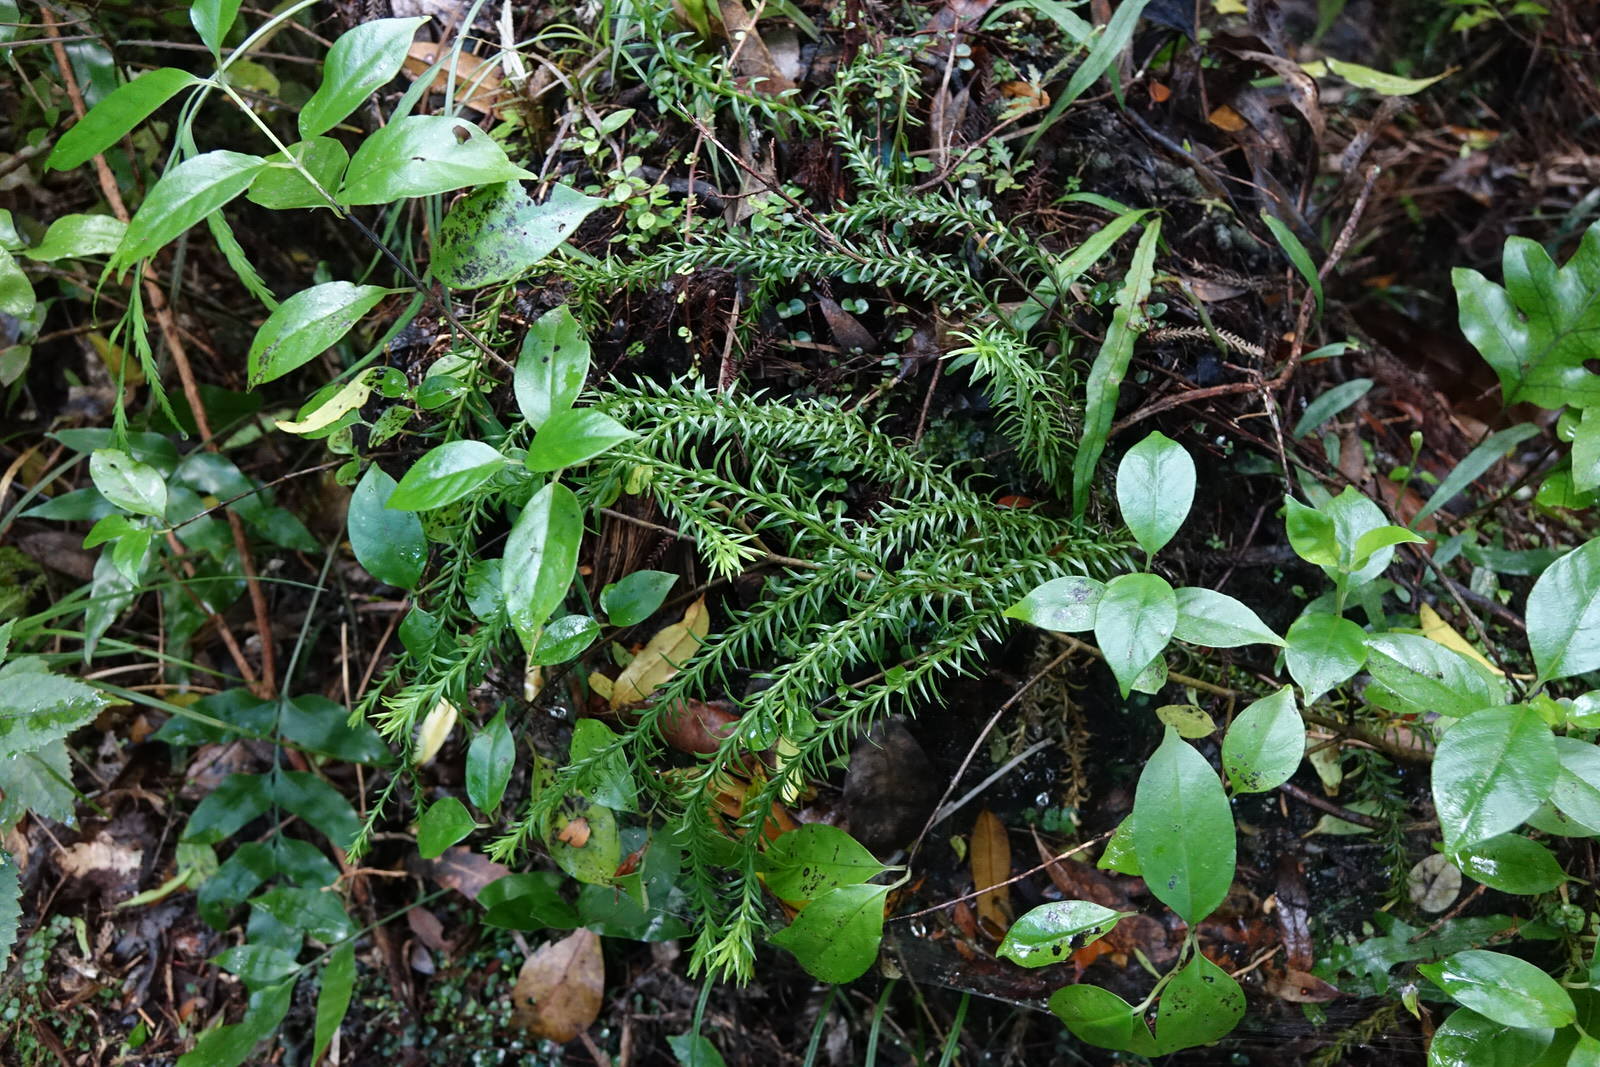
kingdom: Plantae
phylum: Tracheophyta
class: Lycopodiopsida
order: Lycopodiales
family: Lycopodiaceae
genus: Phlegmariurus
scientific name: Phlegmariurus varius
